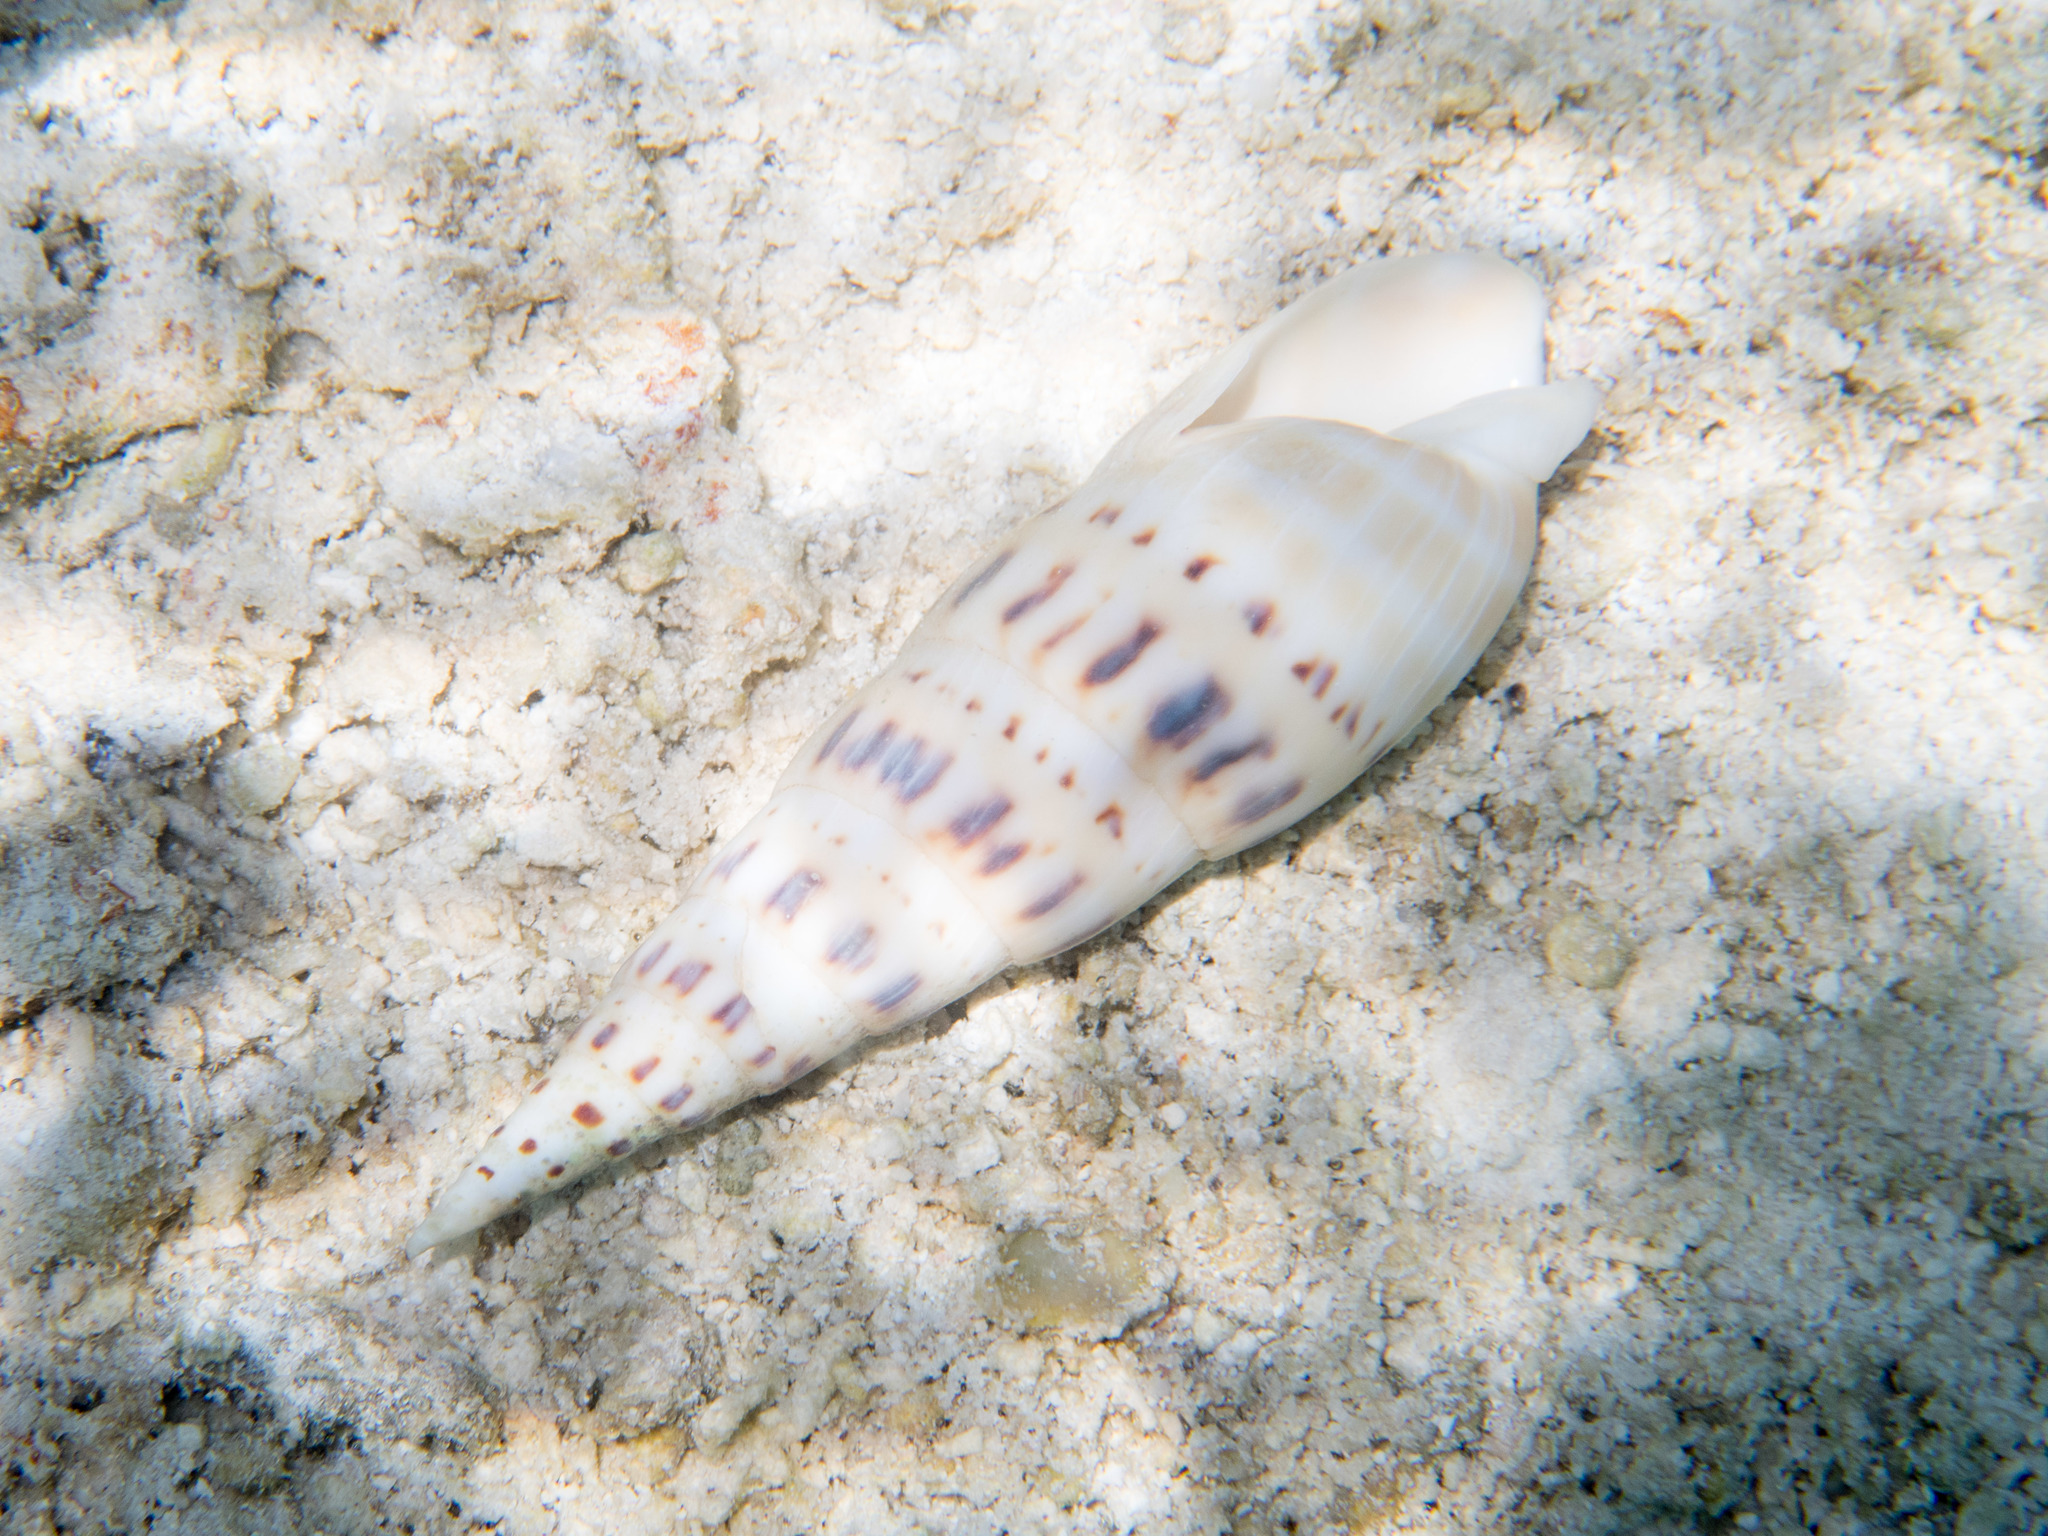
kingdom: Animalia
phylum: Mollusca
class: Gastropoda
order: Neogastropoda
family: Terebridae
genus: Oxymeris
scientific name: Oxymeris maculata
